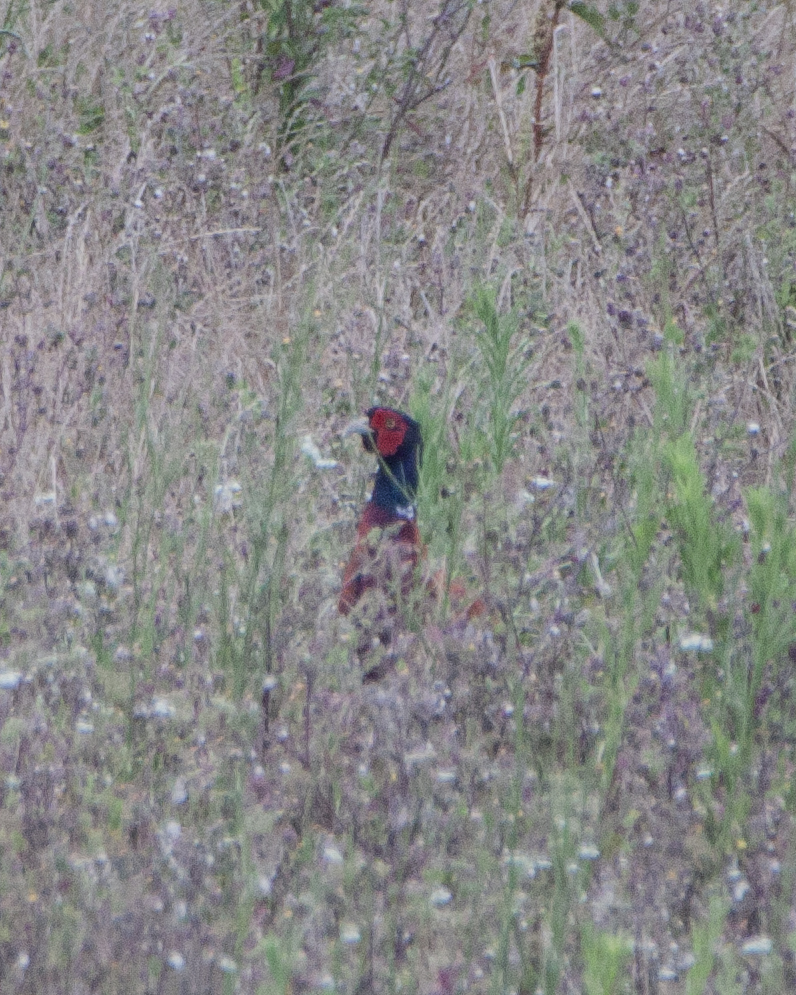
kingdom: Animalia
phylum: Chordata
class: Aves
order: Galliformes
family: Phasianidae
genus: Phasianus
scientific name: Phasianus colchicus
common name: Common pheasant
